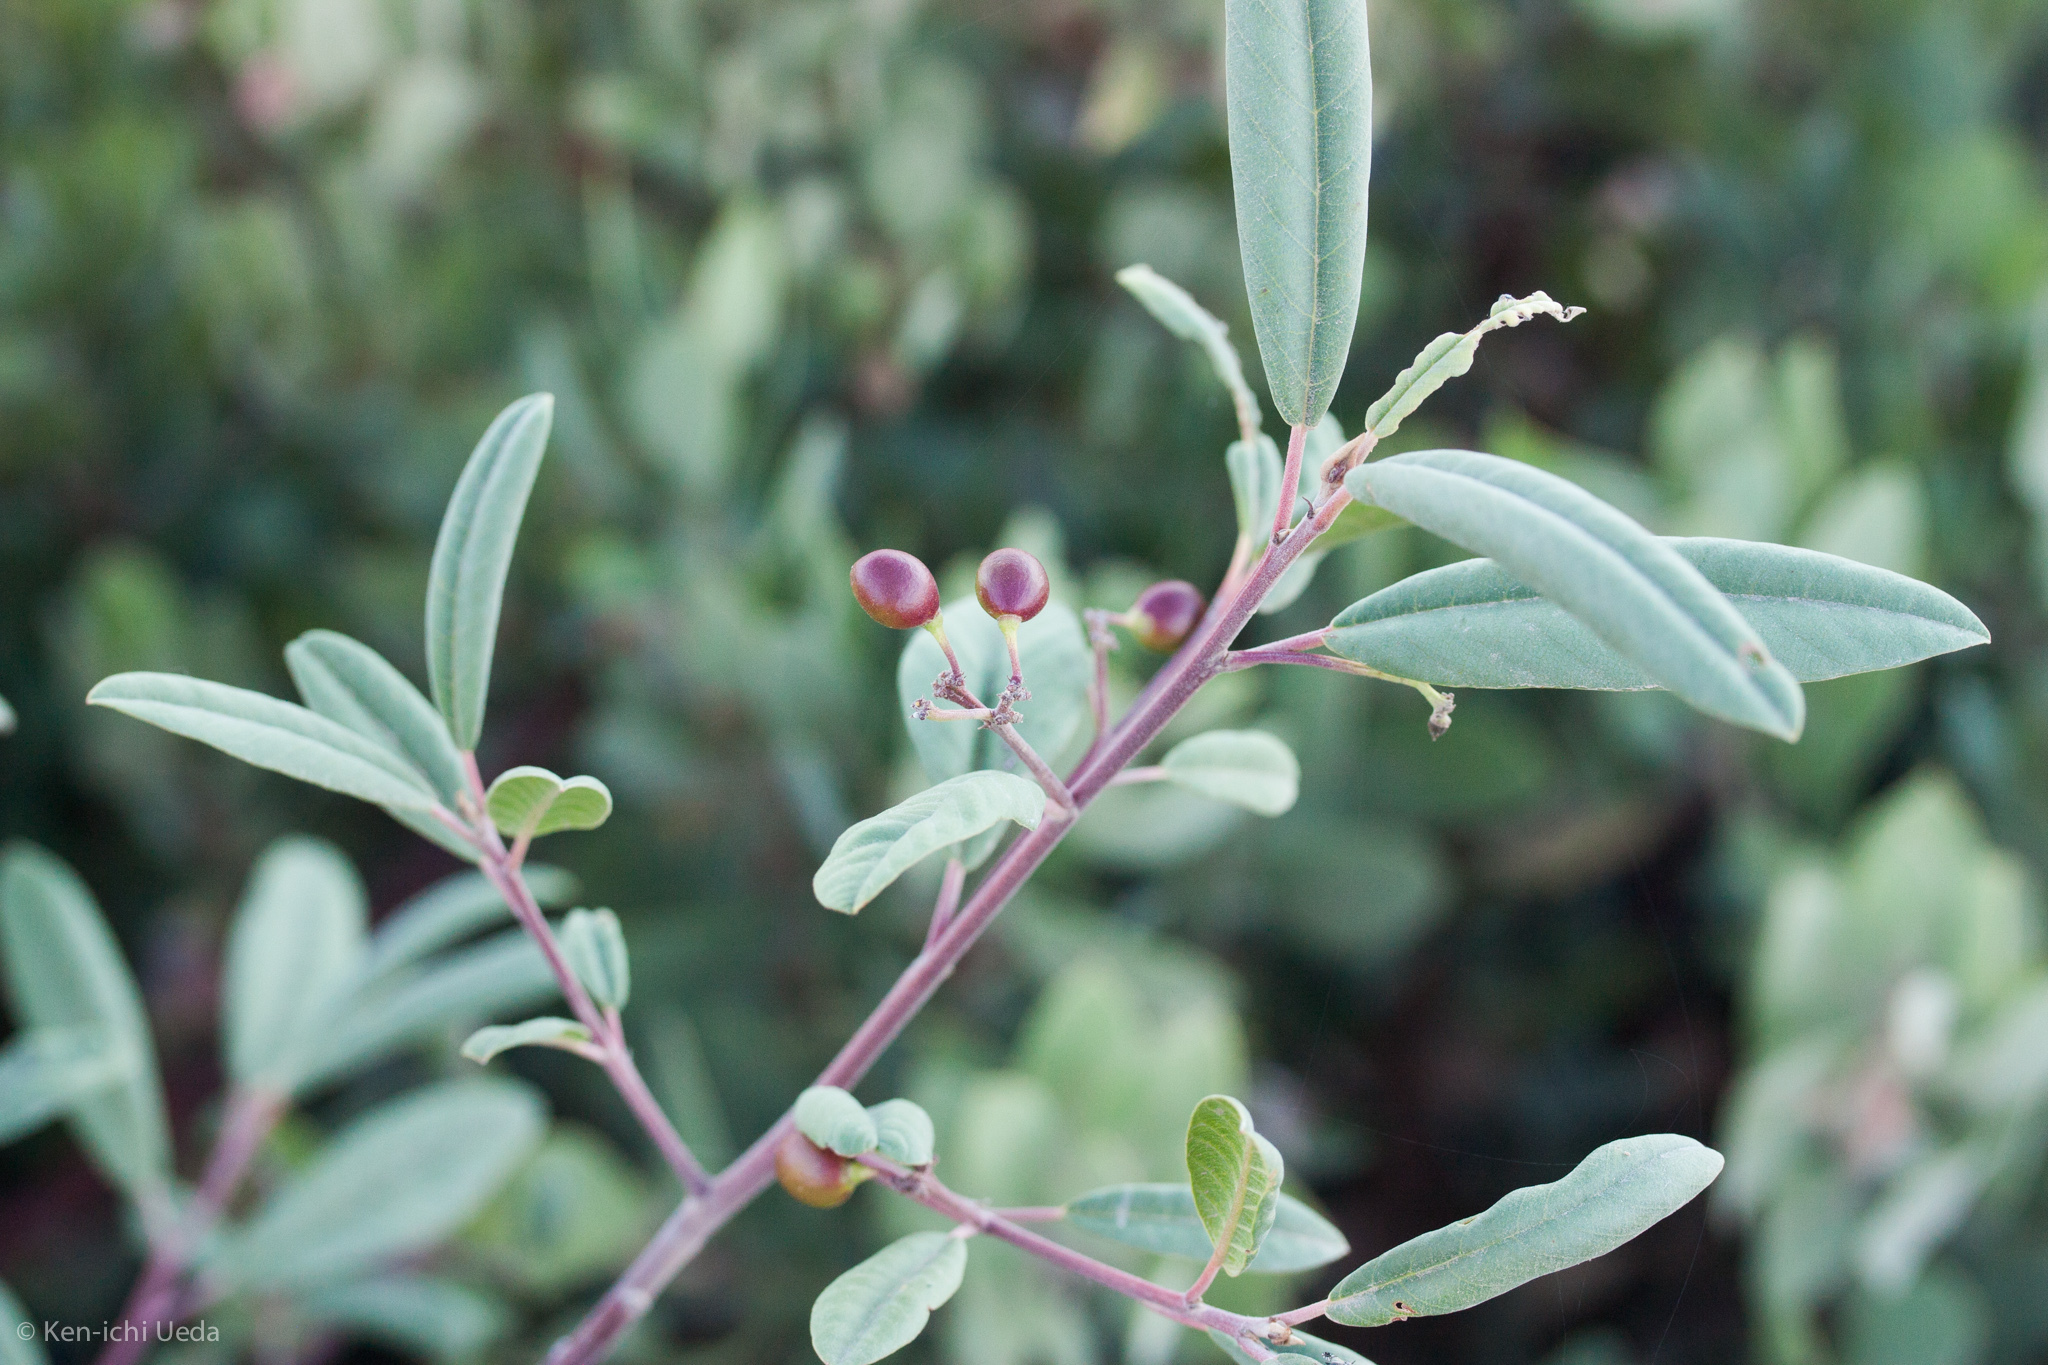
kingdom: Plantae
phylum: Tracheophyta
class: Magnoliopsida
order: Rosales
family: Rhamnaceae
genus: Frangula
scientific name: Frangula californica
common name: California buckthorn
